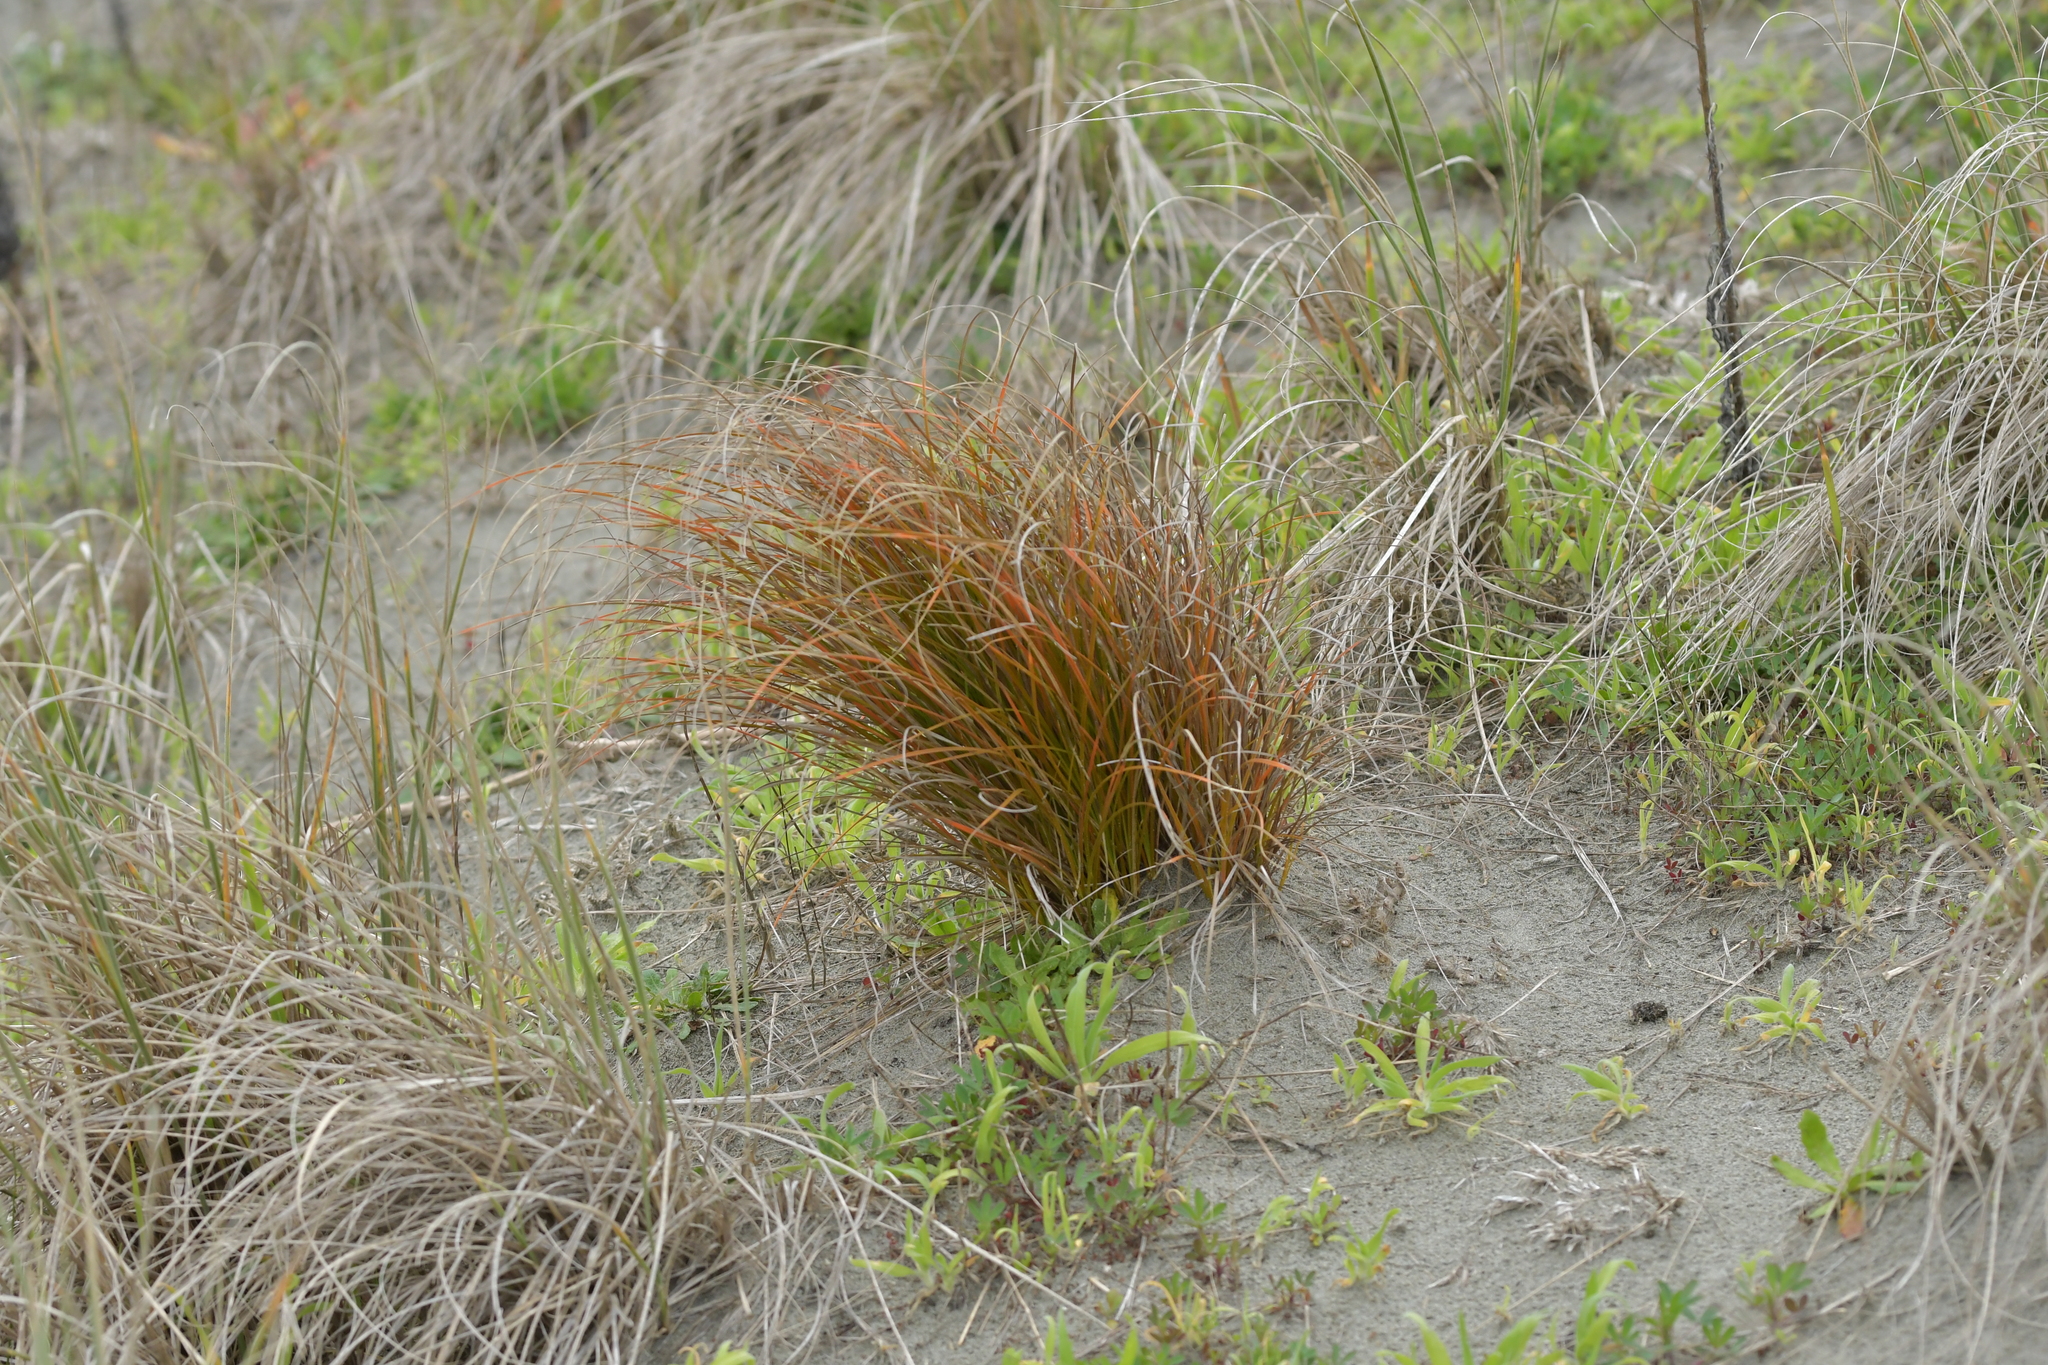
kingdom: Plantae
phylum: Tracheophyta
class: Liliopsida
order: Poales
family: Cyperaceae
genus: Carex
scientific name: Carex testacea
